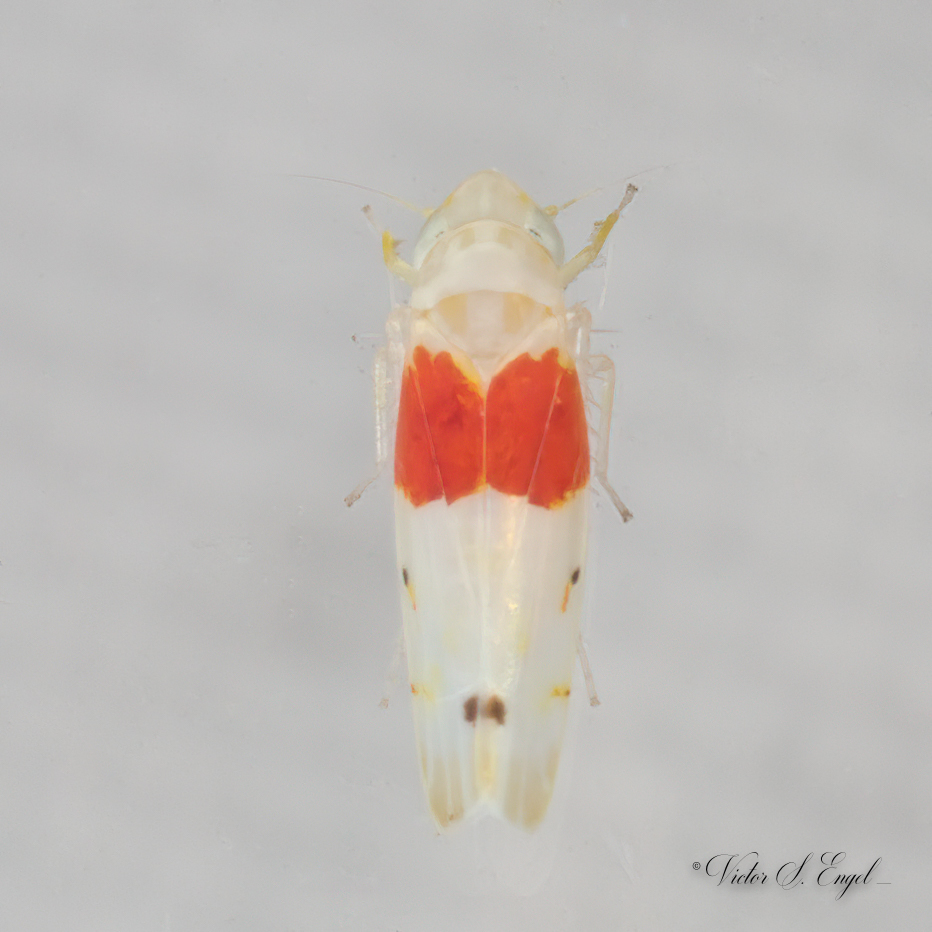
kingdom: Animalia
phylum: Arthropoda
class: Insecta
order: Hemiptera
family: Cicadellidae
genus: Eratoneura
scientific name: Eratoneura osborni
